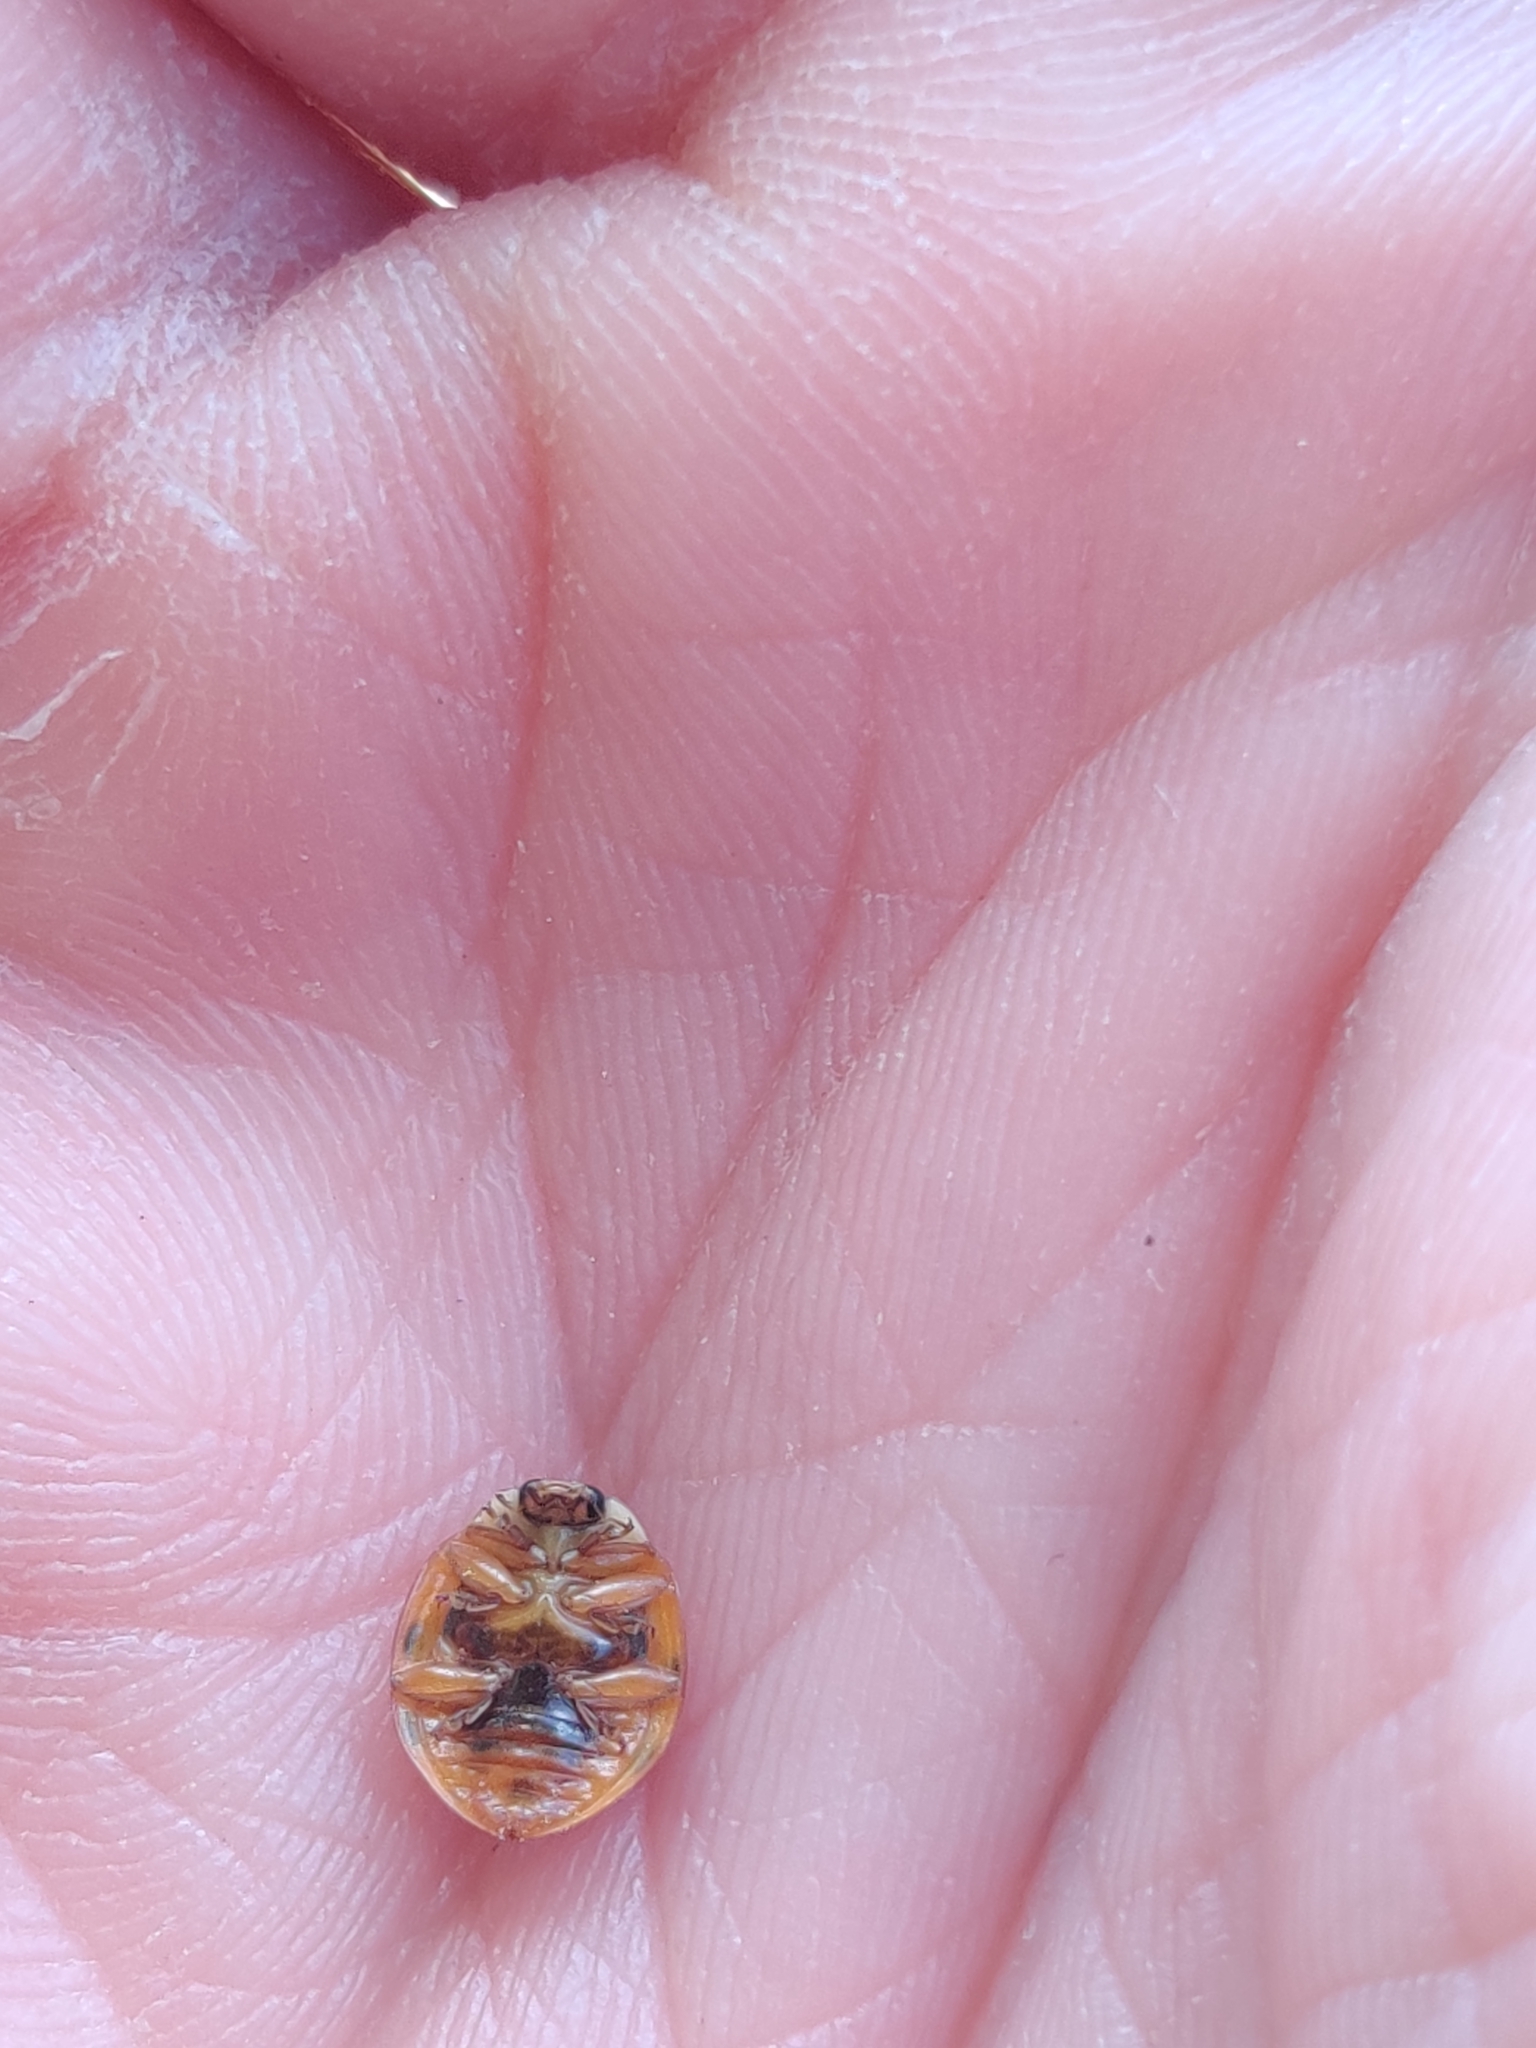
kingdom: Animalia
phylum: Arthropoda
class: Insecta
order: Coleoptera
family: Coccinellidae
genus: Harmonia
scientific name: Harmonia axyridis
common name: Harlequin ladybird
